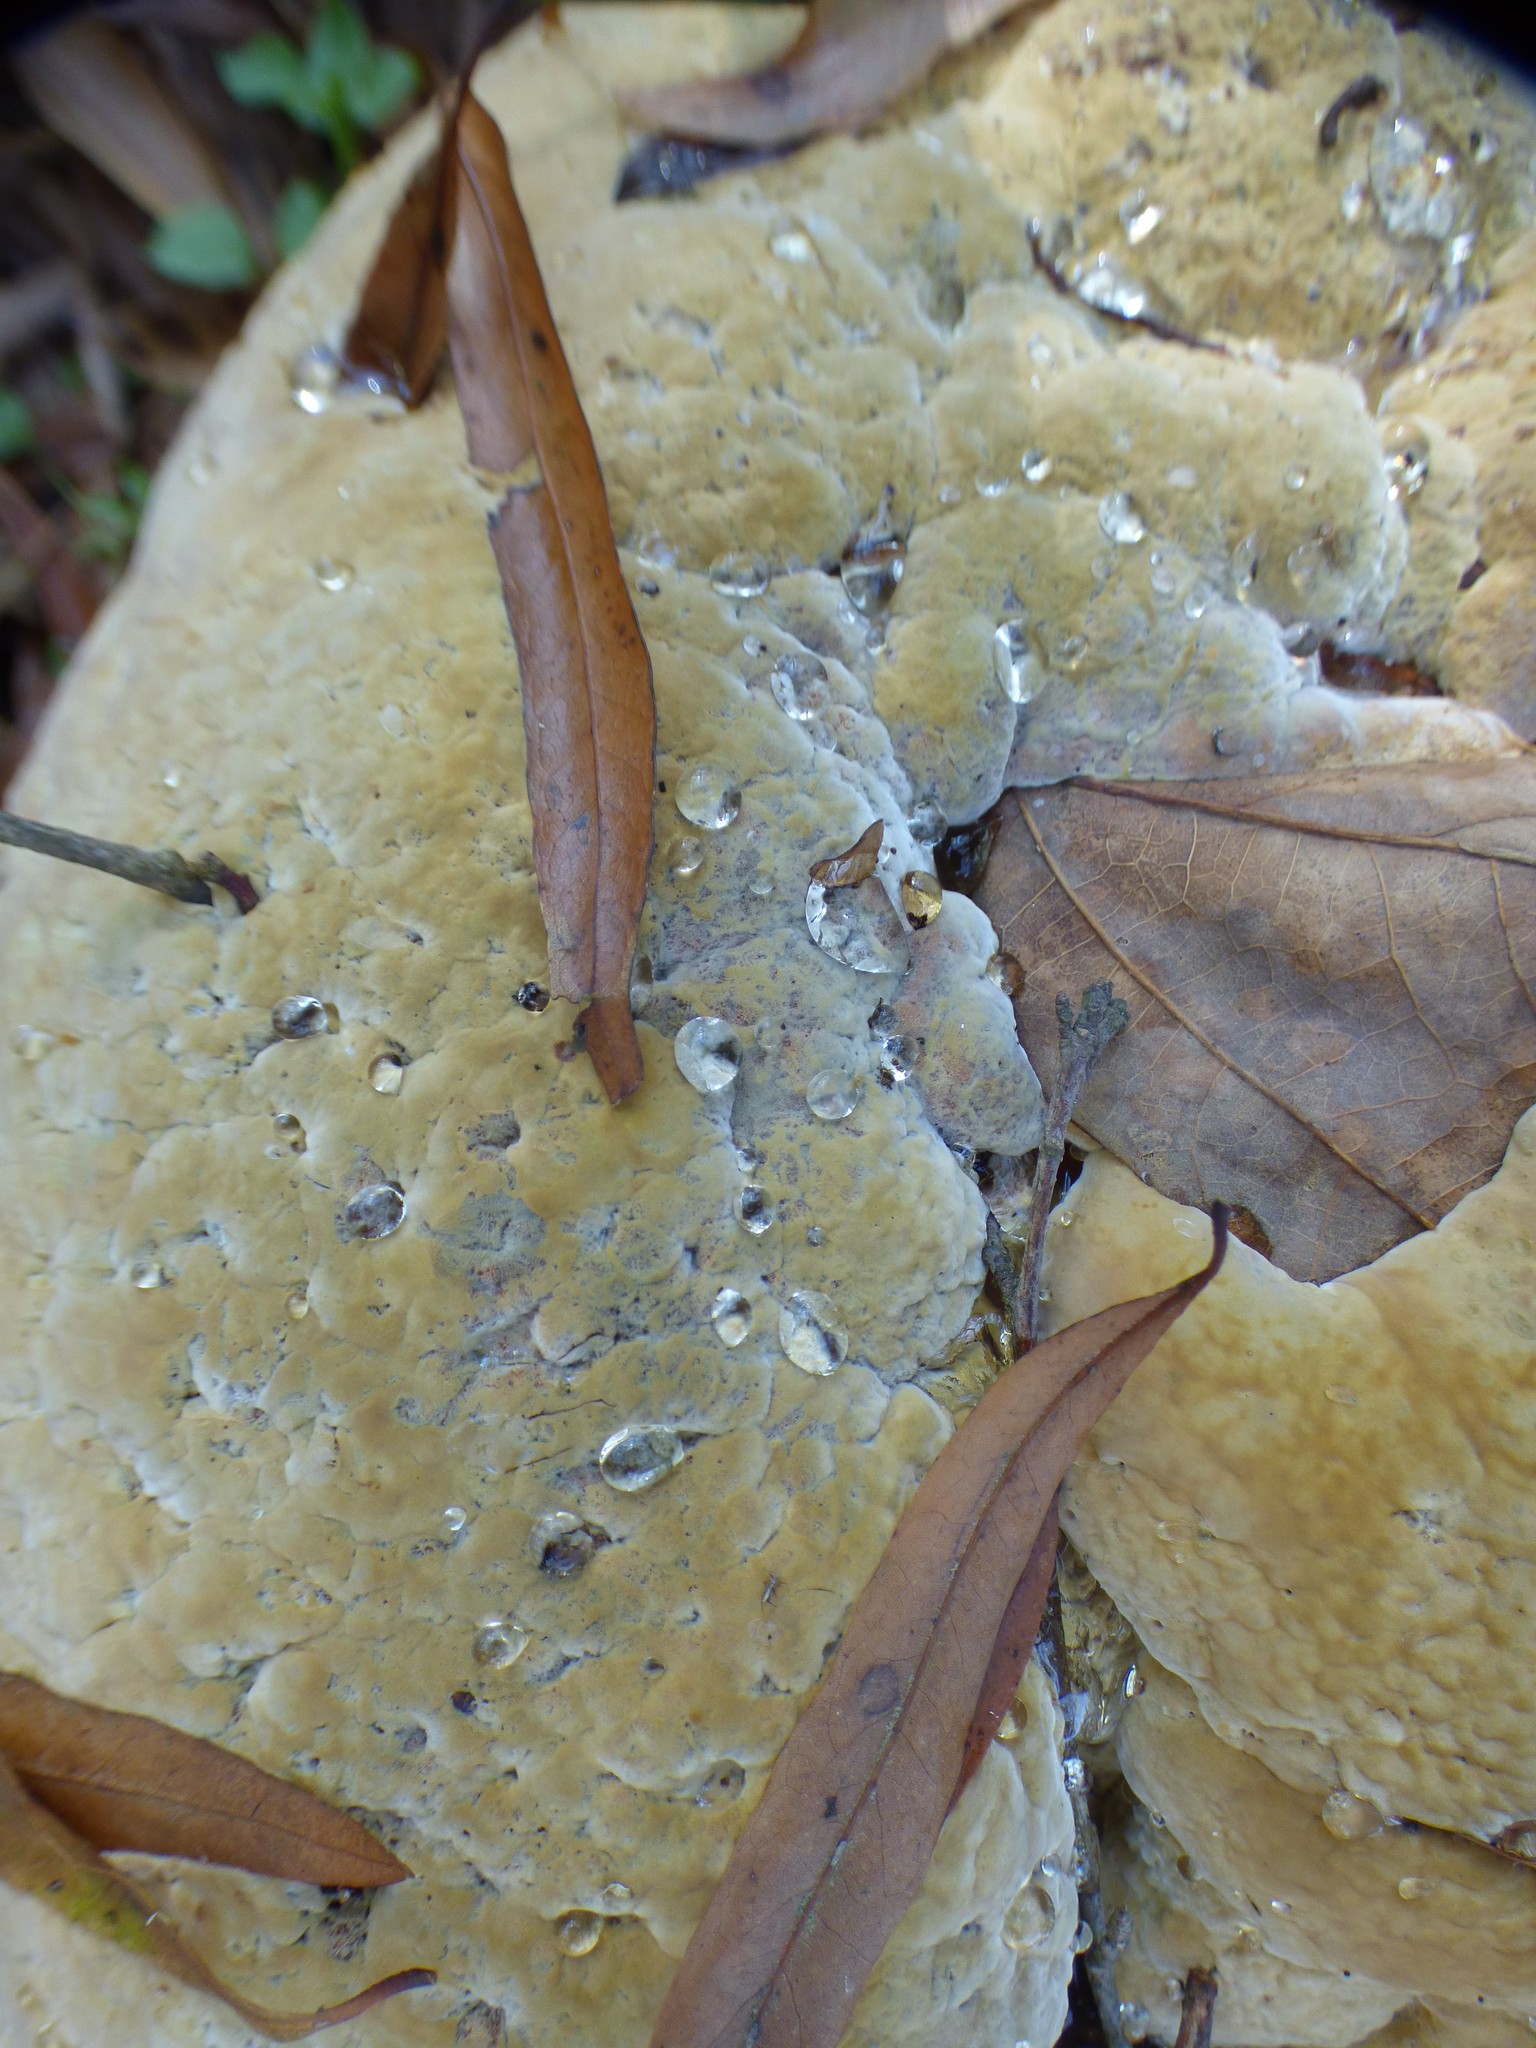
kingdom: Fungi
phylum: Basidiomycota
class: Agaricomycetes
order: Hymenochaetales
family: Hymenochaetaceae
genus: Pseudoinonotus
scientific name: Pseudoinonotus dryadeus
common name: Oak bracket
